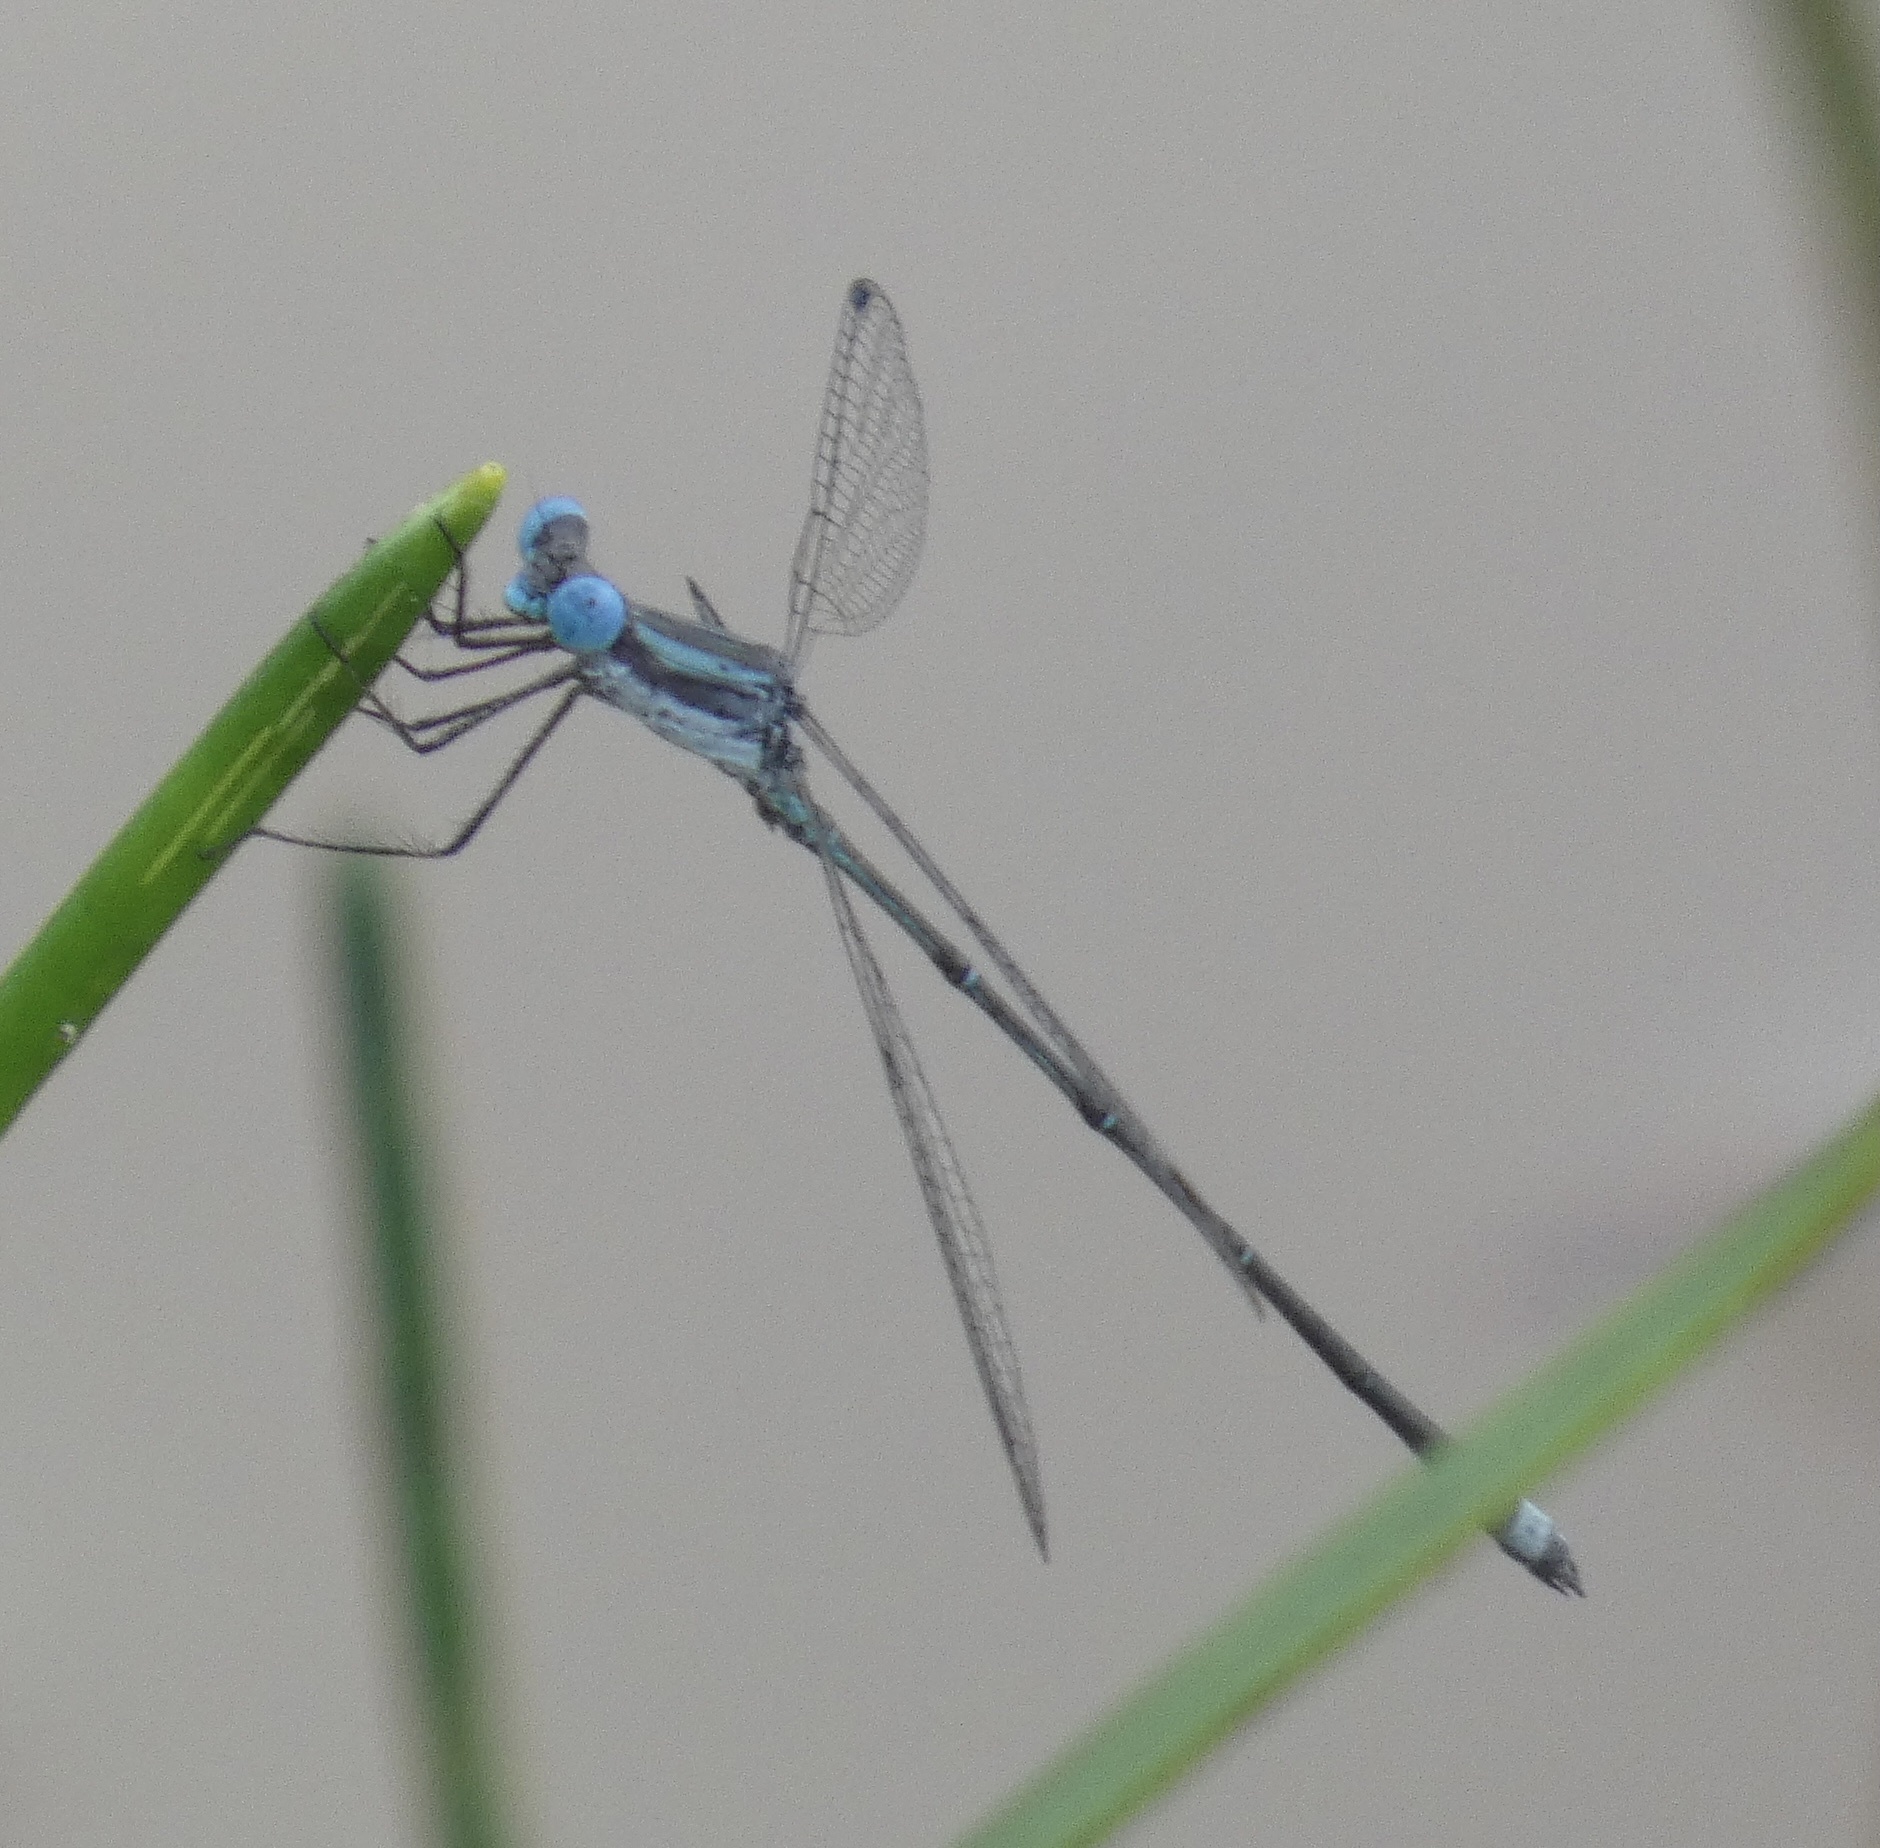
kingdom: Animalia
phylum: Arthropoda
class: Insecta
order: Odonata
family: Lestidae
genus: Lestes
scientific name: Lestes forficula
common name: Rainpool spreadwing
